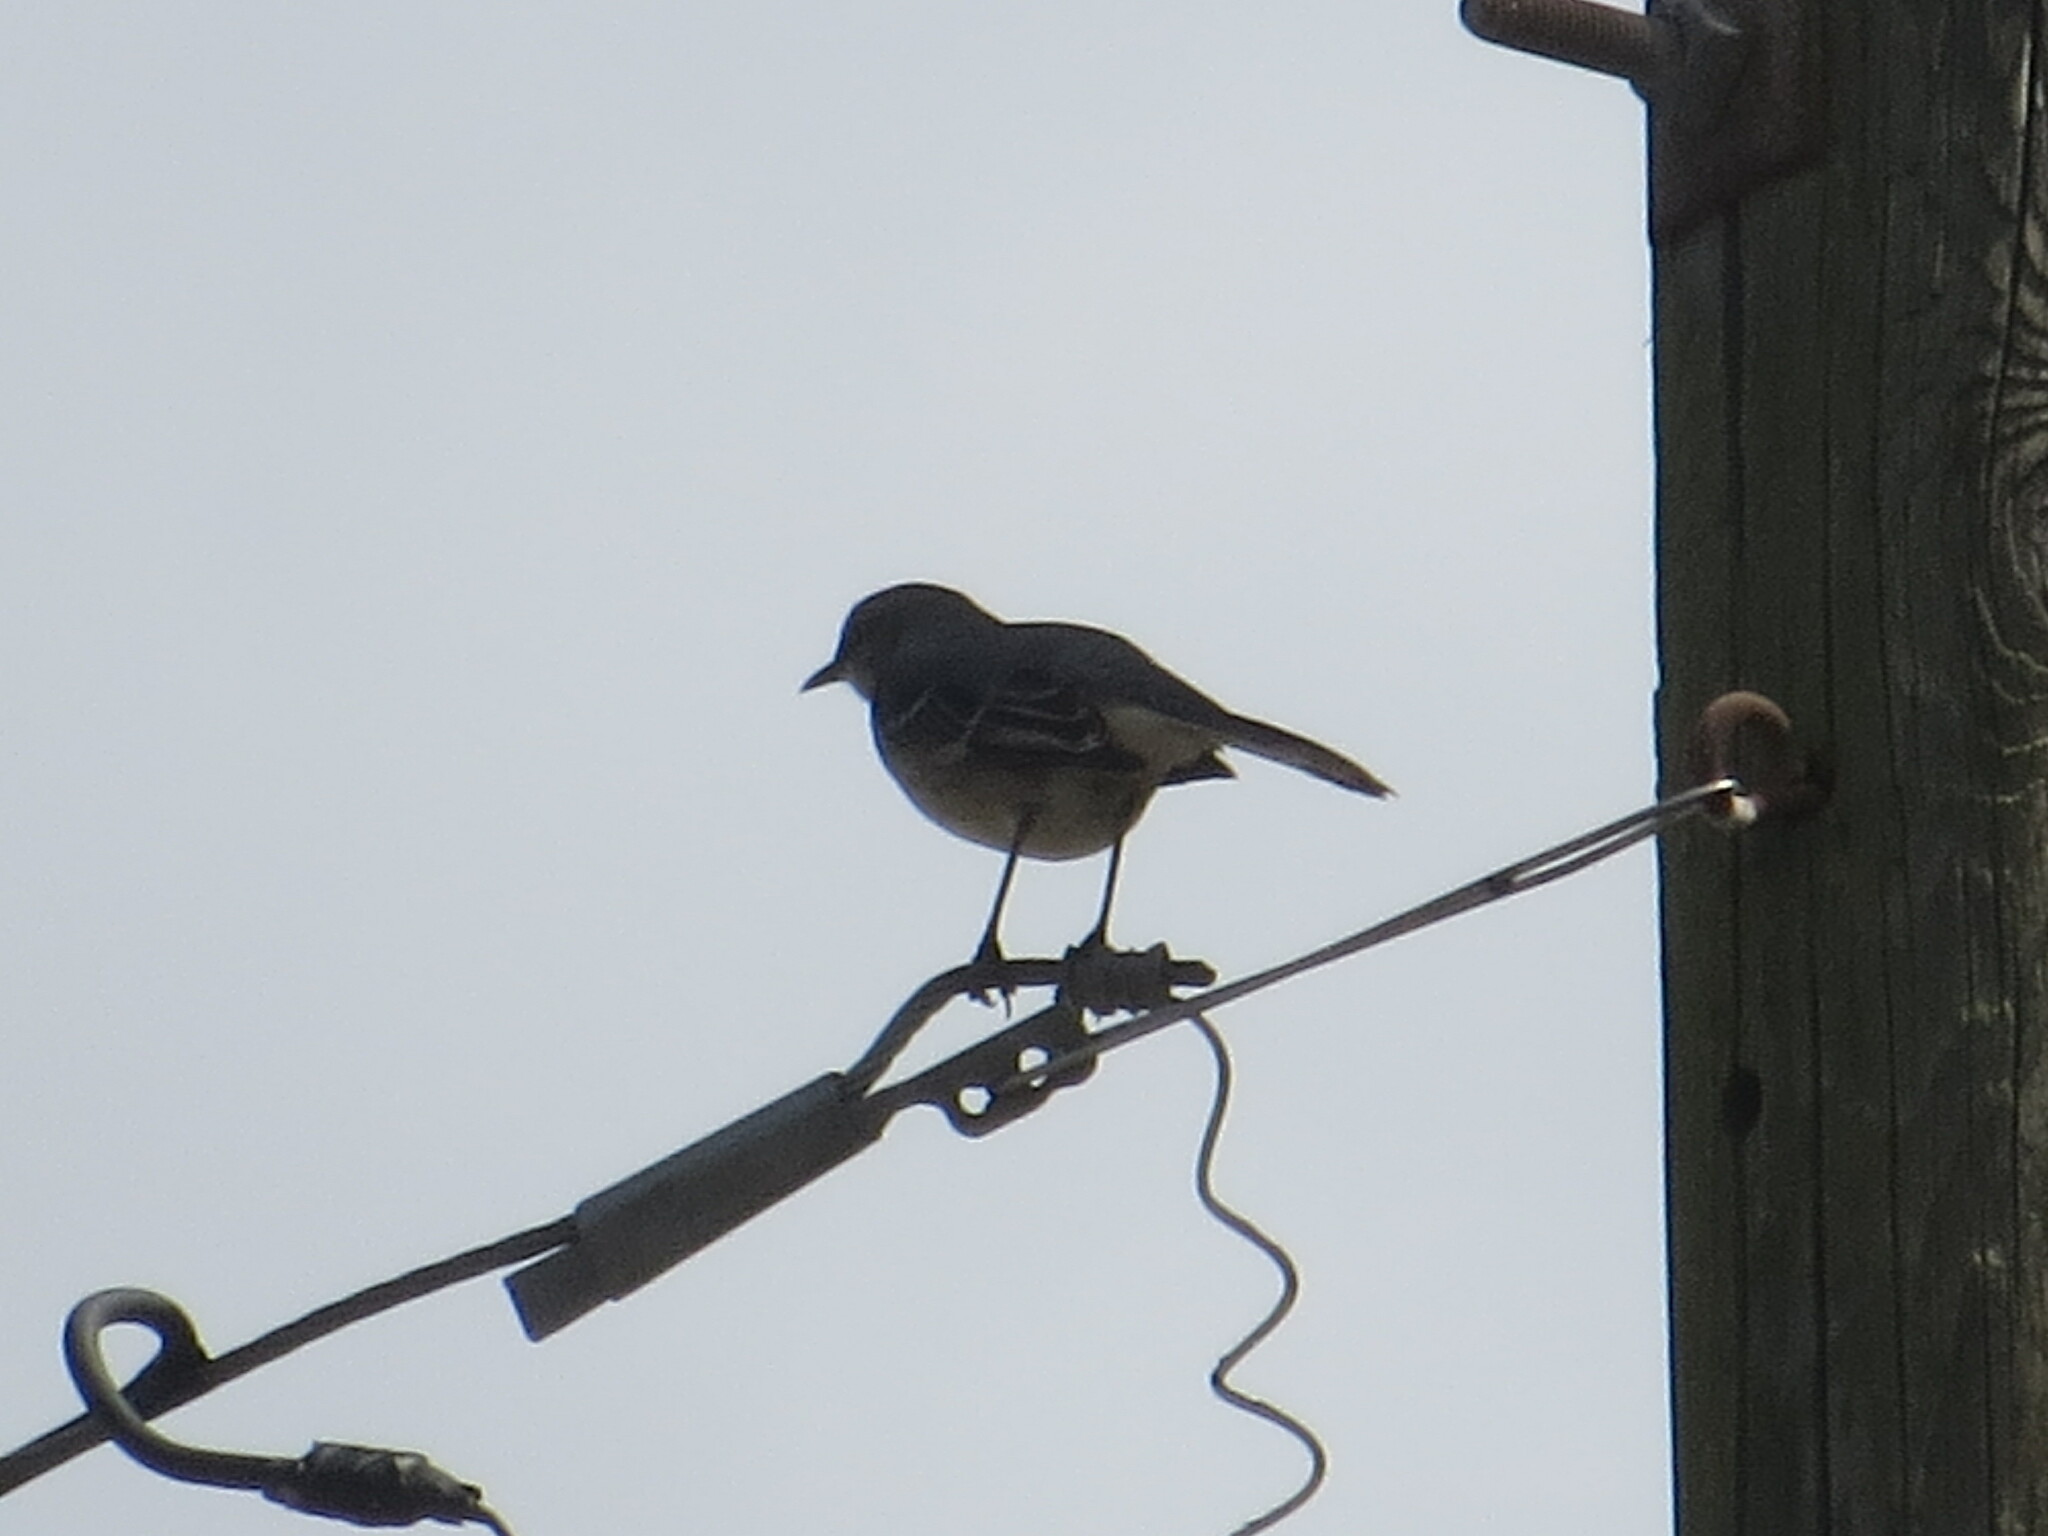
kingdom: Animalia
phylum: Chordata
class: Aves
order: Passeriformes
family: Mimidae
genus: Mimus
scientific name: Mimus polyglottos
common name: Northern mockingbird
